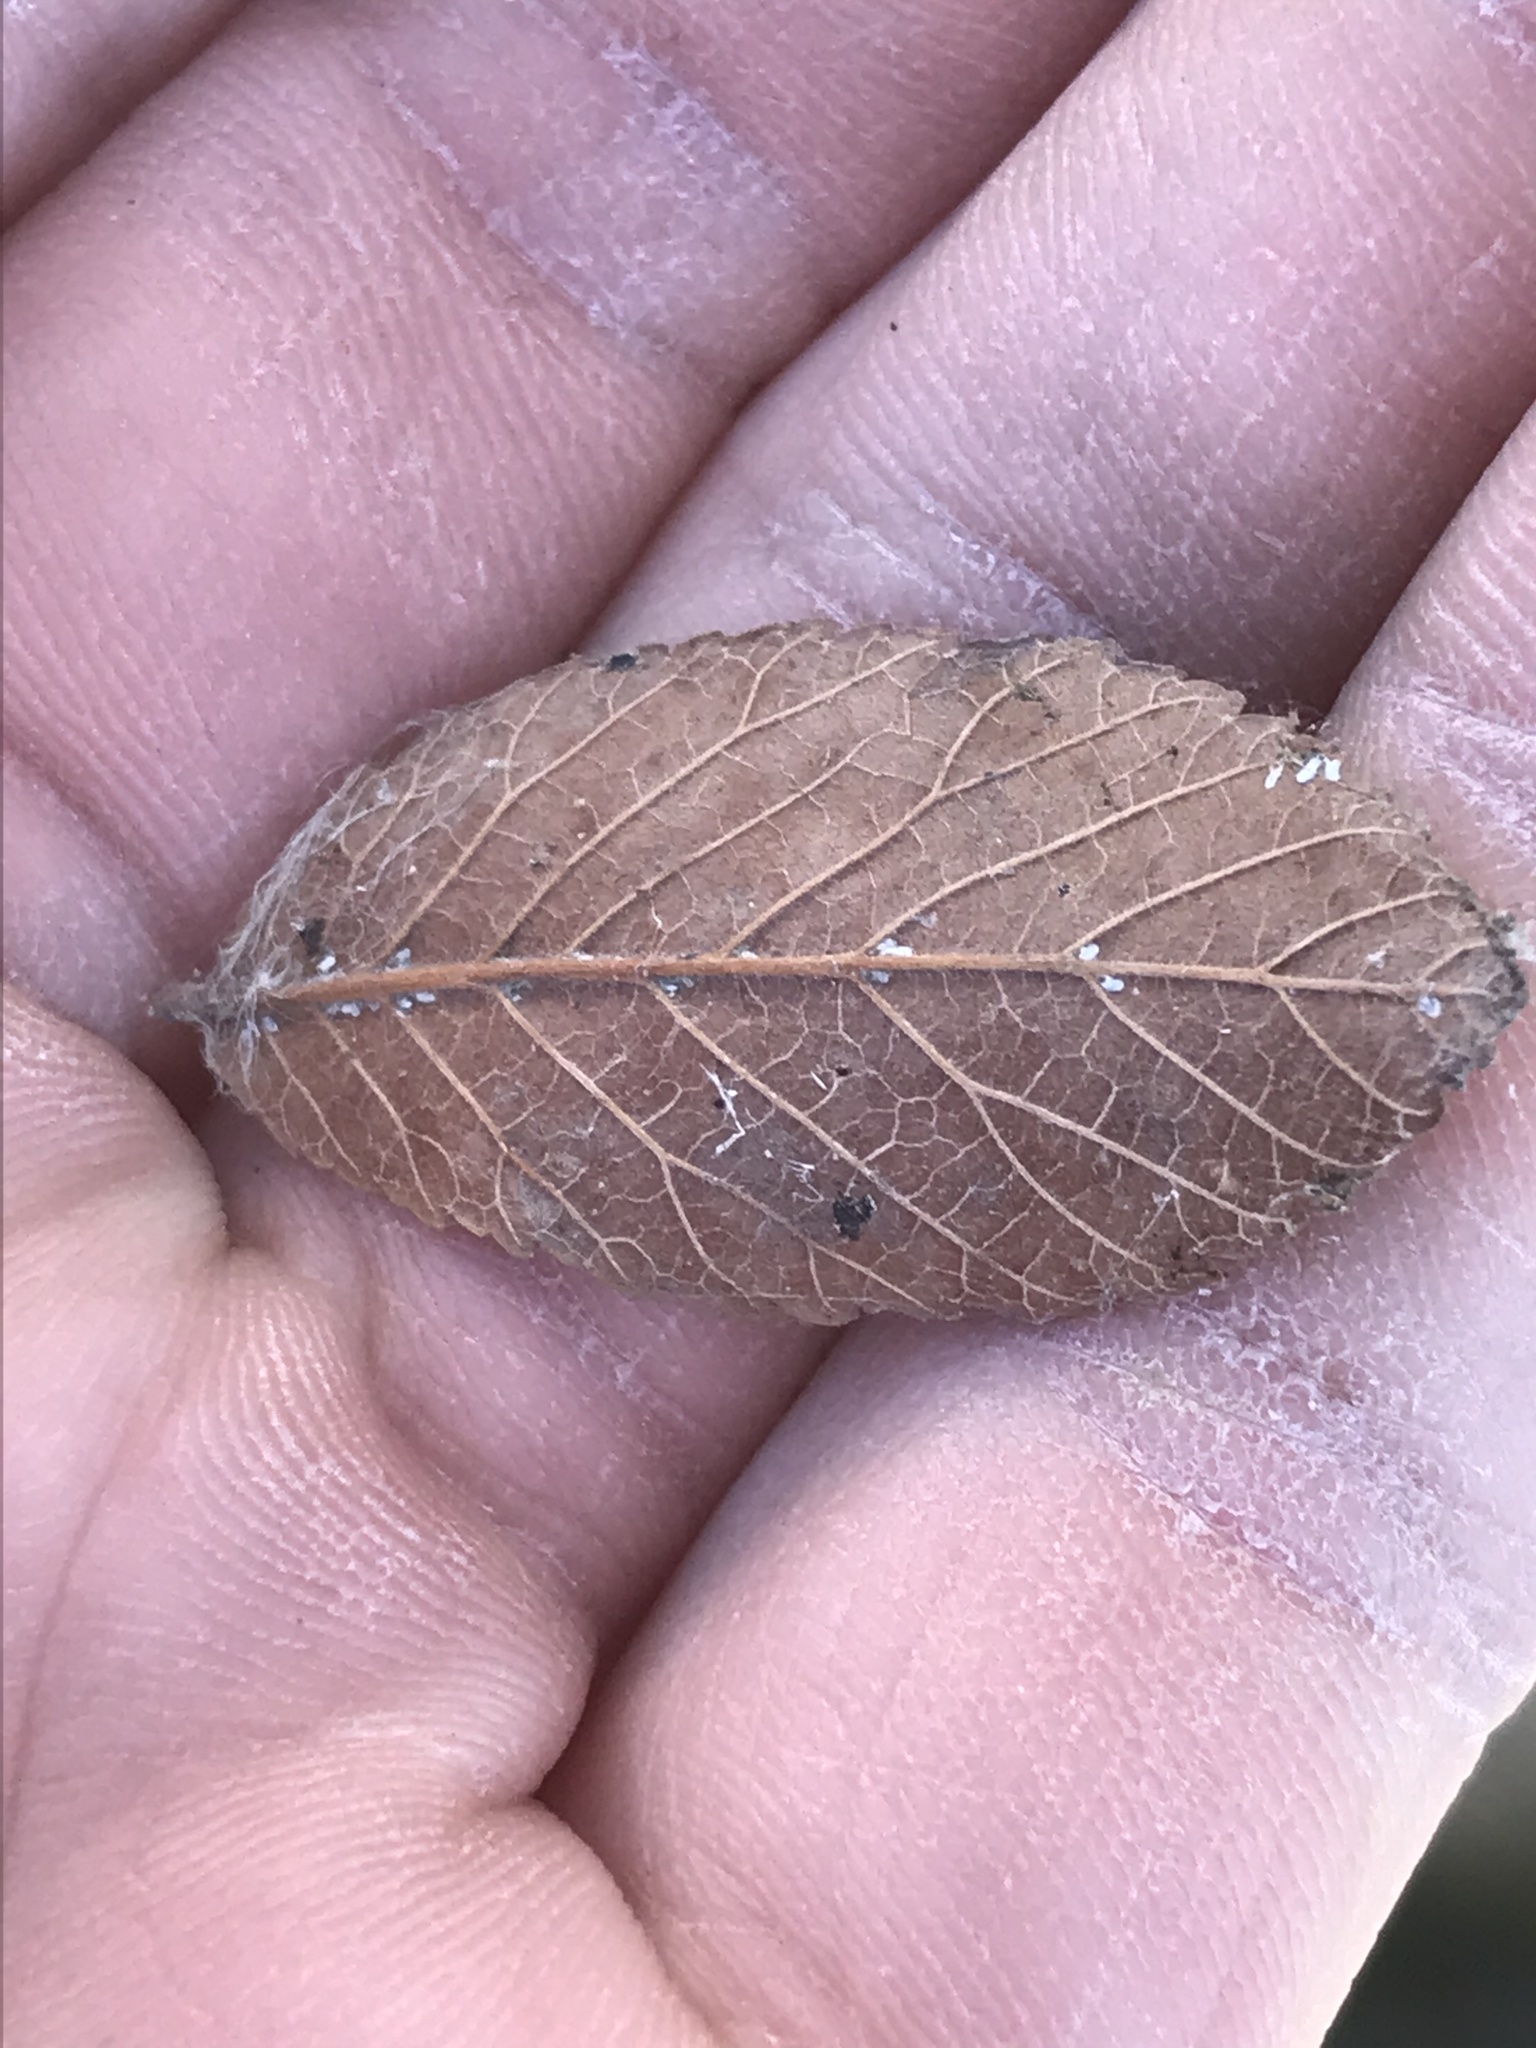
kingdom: Plantae
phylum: Tracheophyta
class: Magnoliopsida
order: Rosales
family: Ulmaceae
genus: Ulmus
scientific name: Ulmus crassifolia
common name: Basket elm
